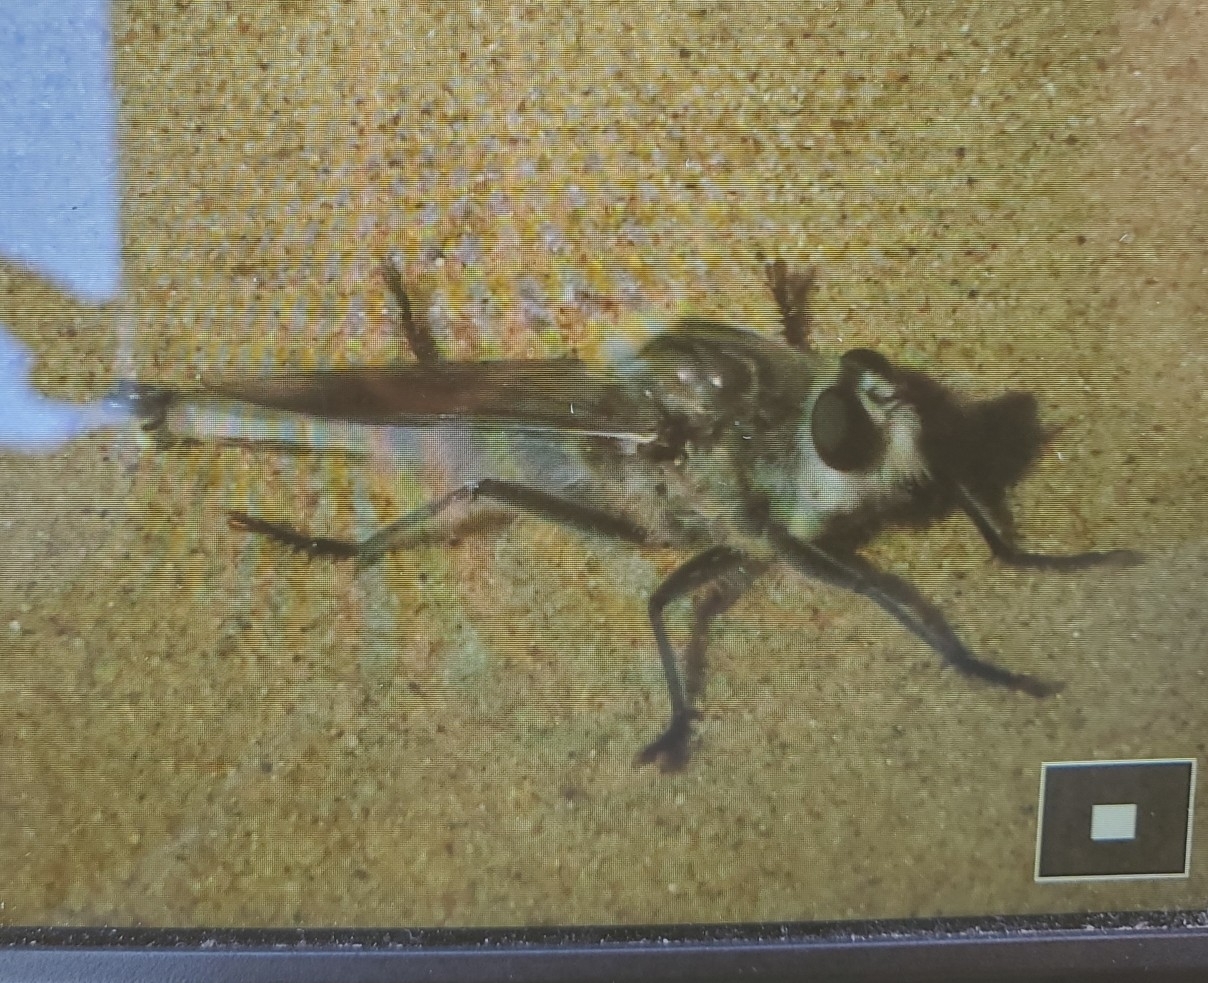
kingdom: Animalia
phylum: Arthropoda
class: Insecta
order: Diptera
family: Asilidae
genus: Proctacanthus
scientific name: Proctacanthus coquillettii
